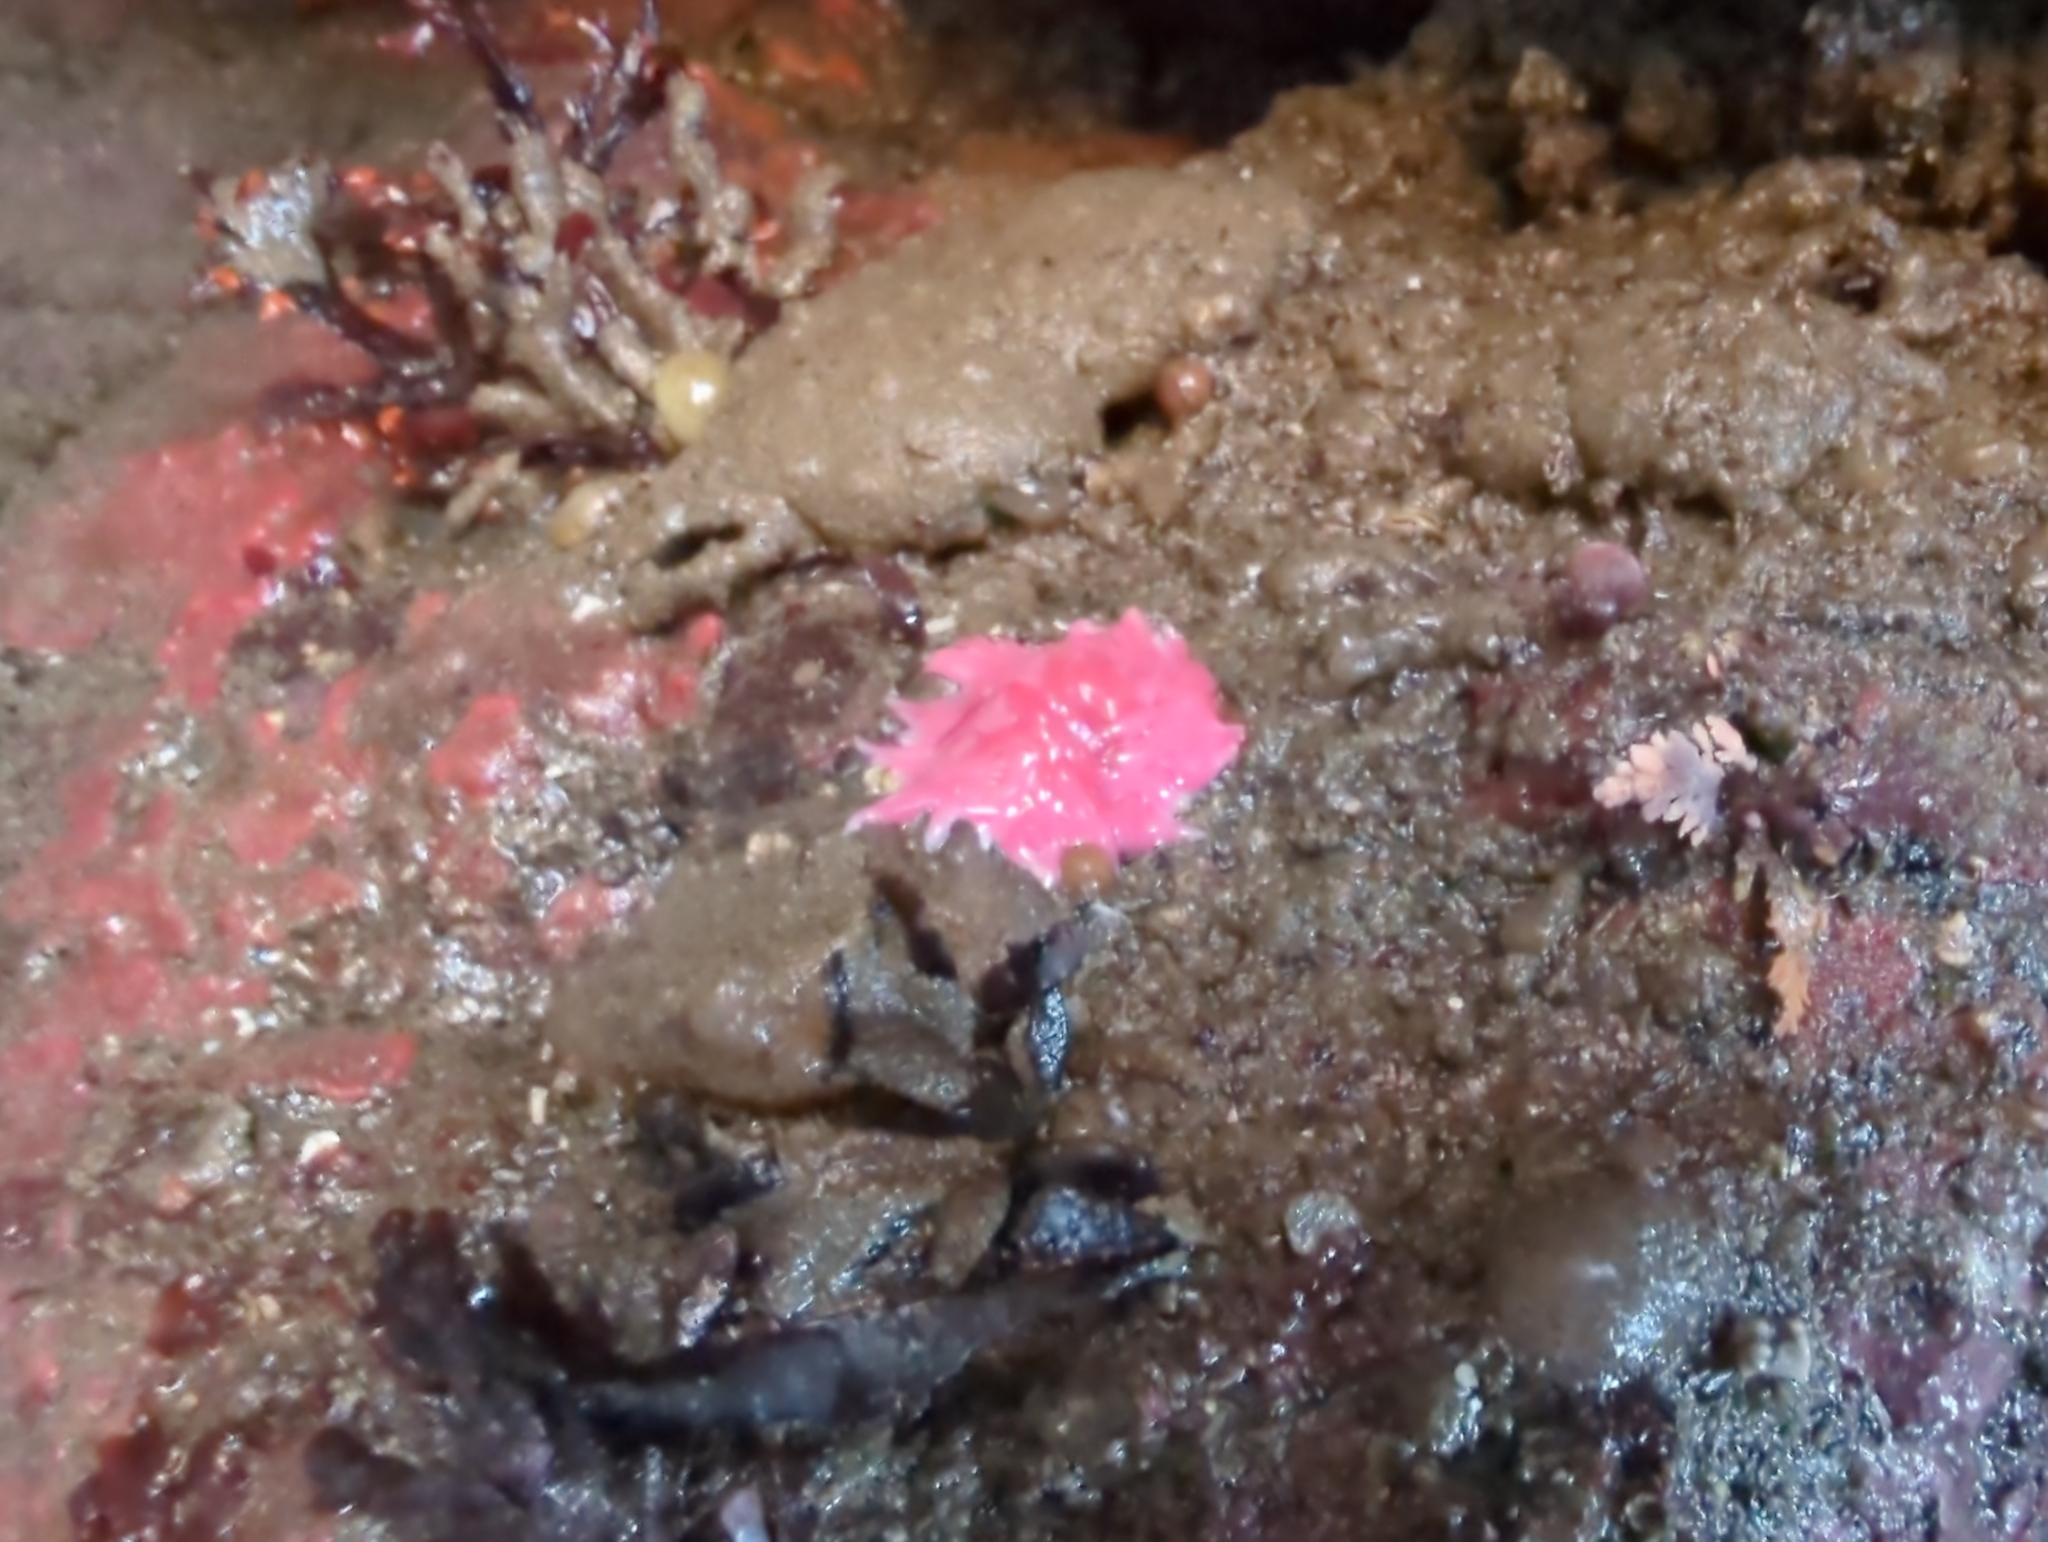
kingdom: Animalia
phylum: Mollusca
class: Gastropoda
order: Nudibranchia
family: Goniodorididae
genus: Okenia
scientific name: Okenia
